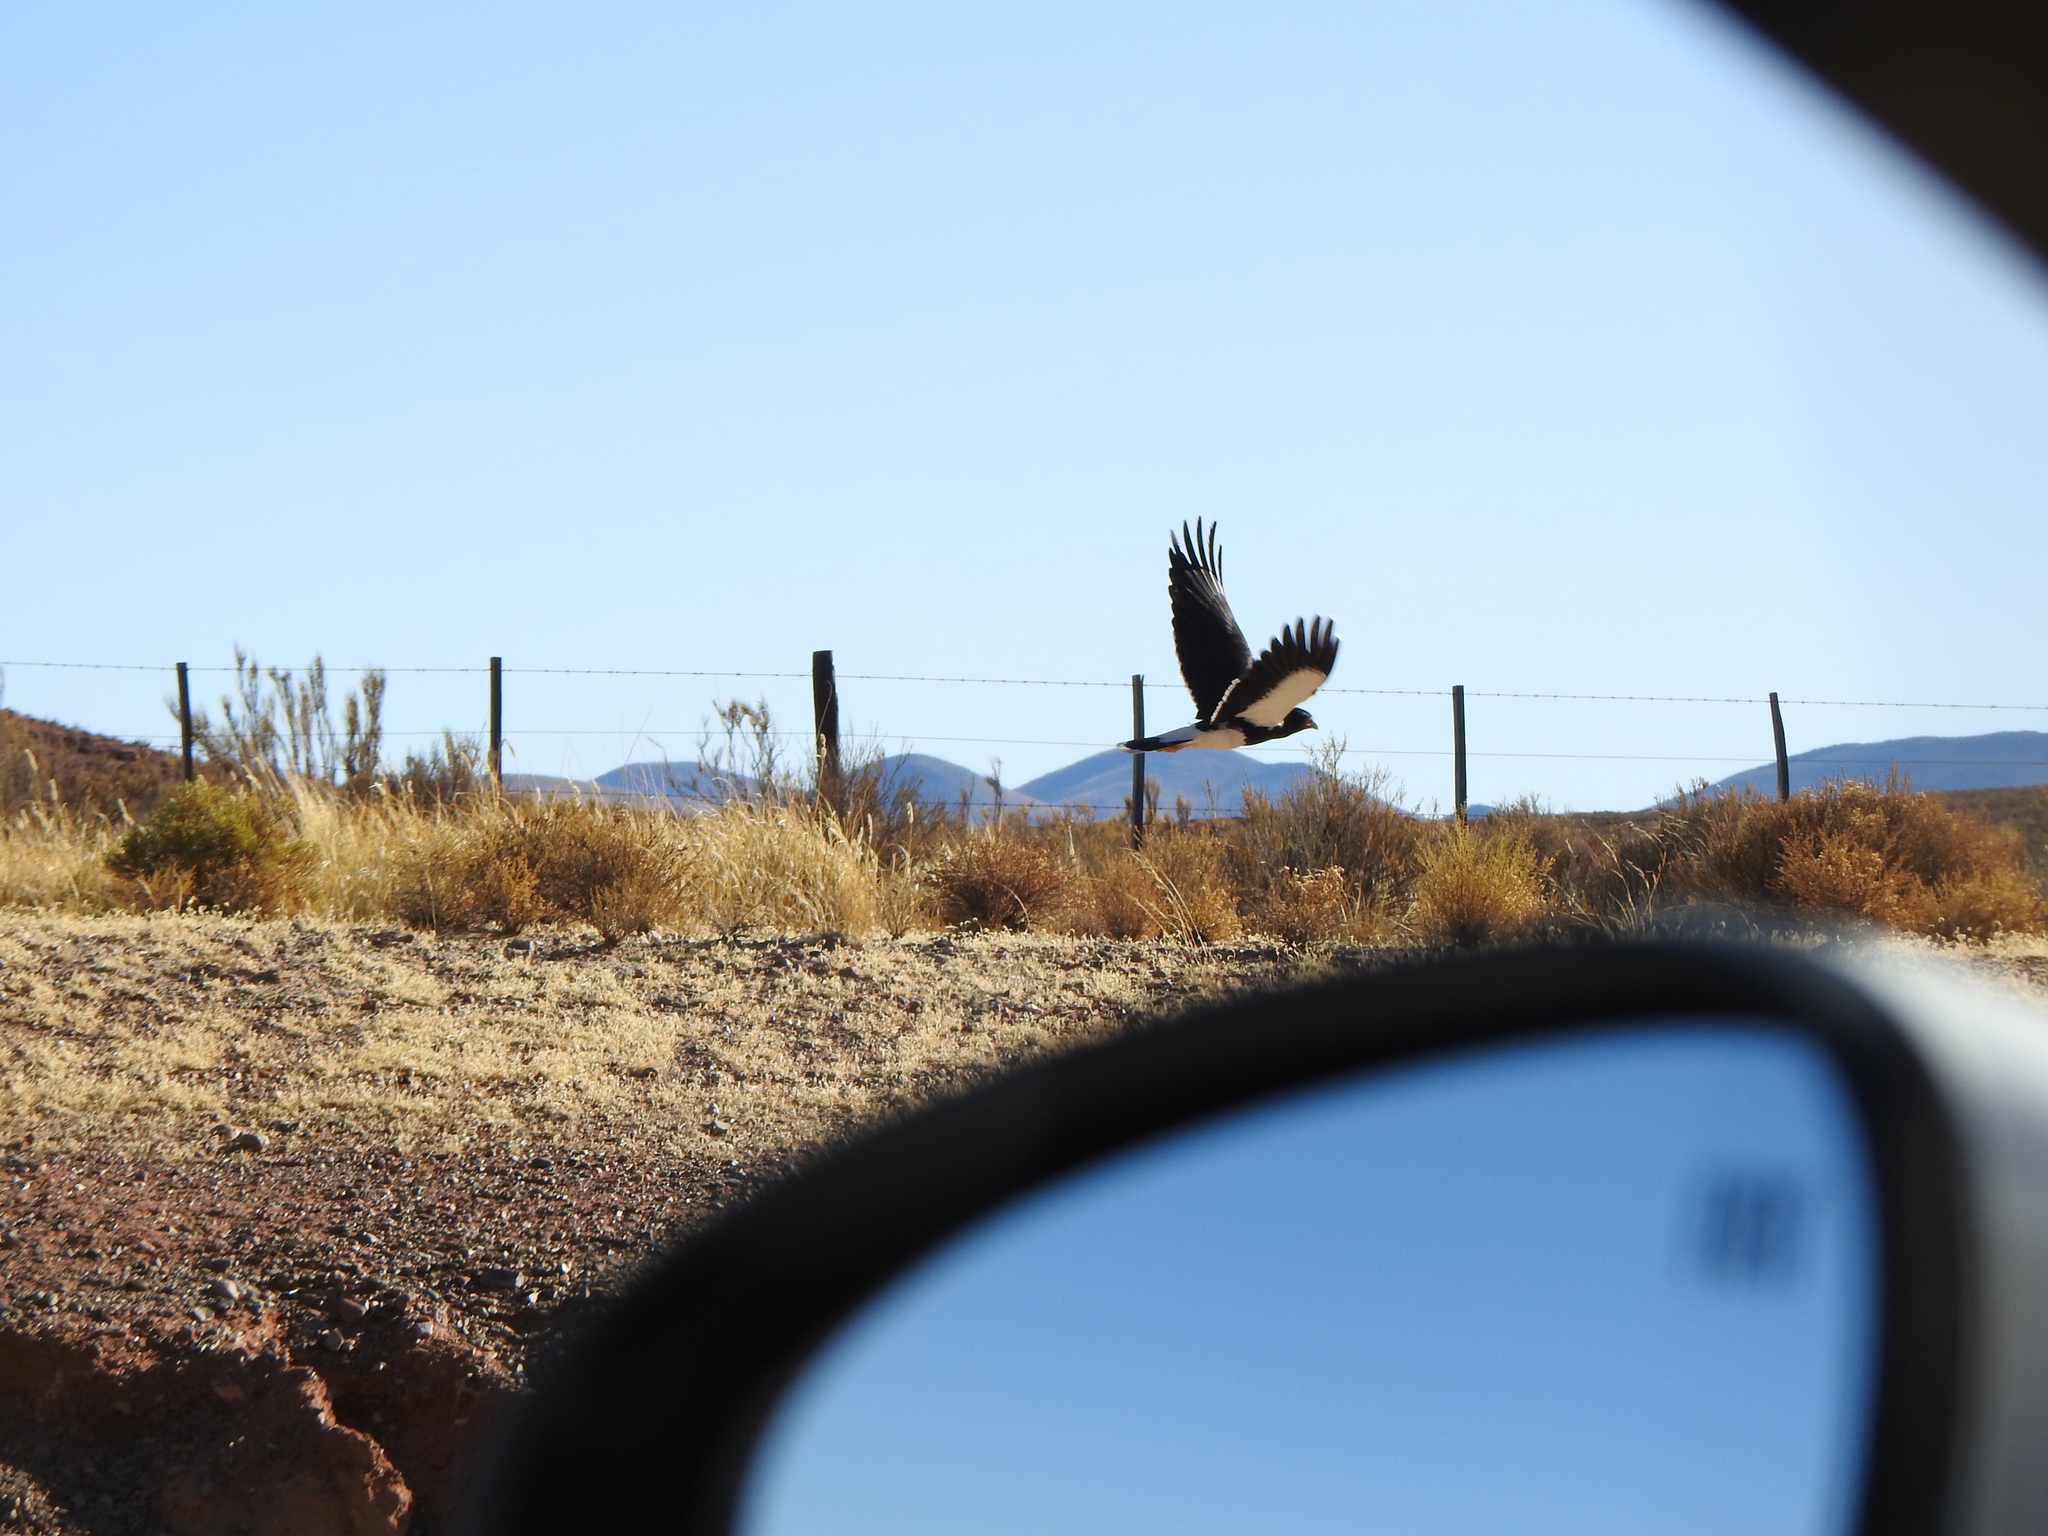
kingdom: Animalia
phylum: Chordata
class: Aves
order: Falconiformes
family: Falconidae
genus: Daptrius
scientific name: Daptrius
